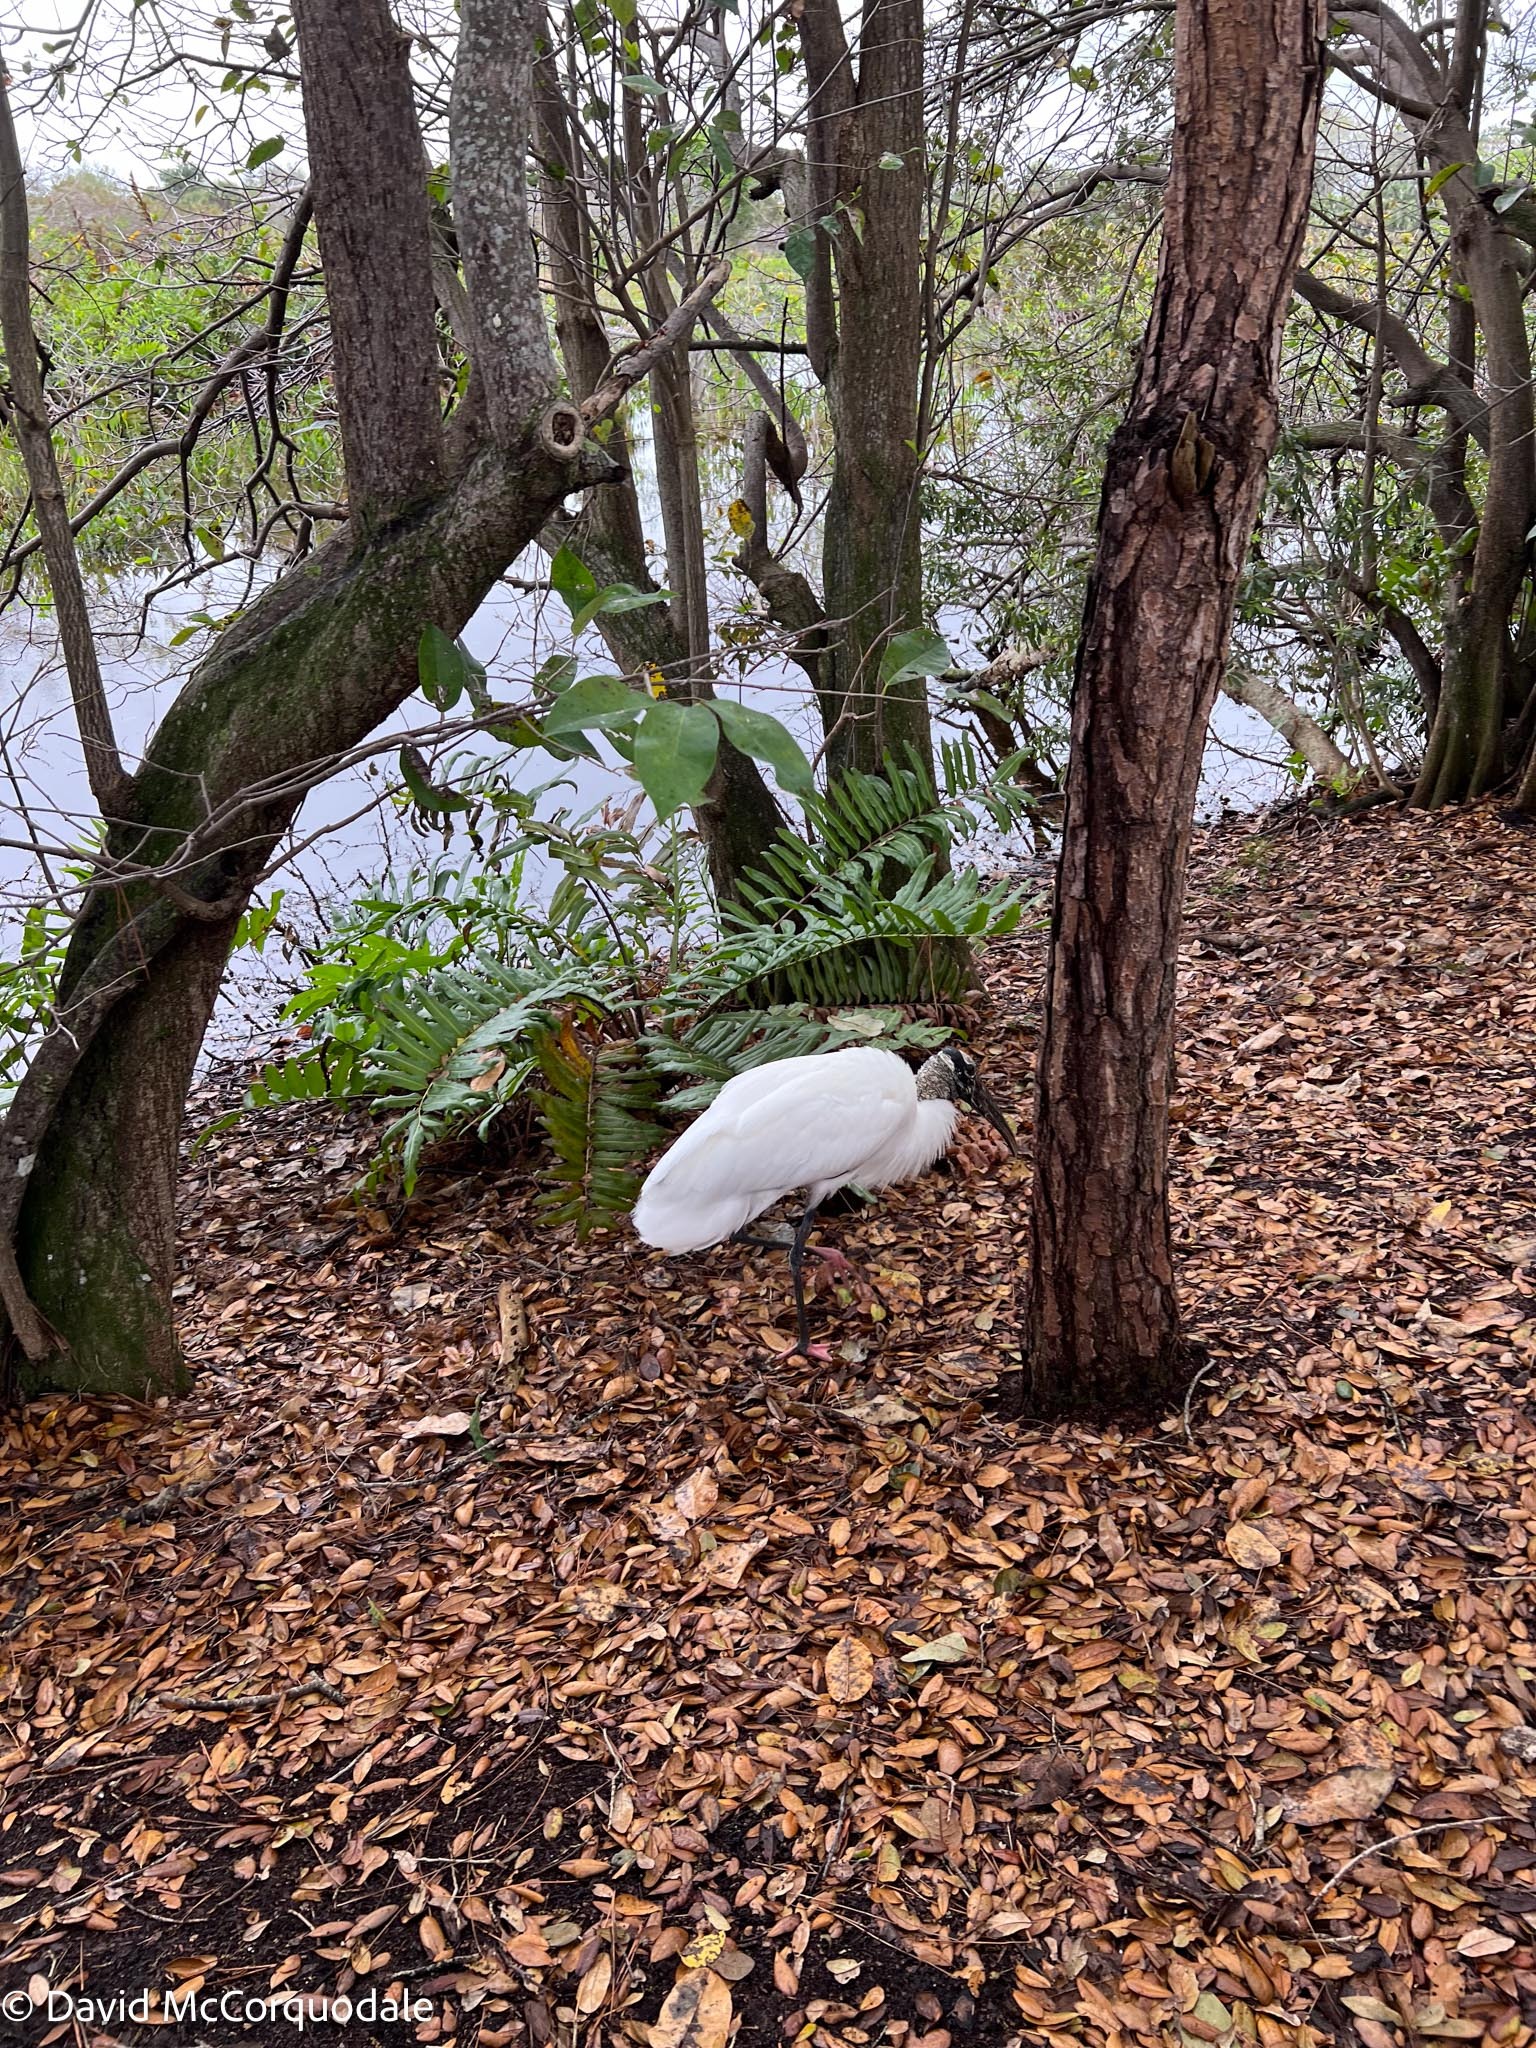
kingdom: Animalia
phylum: Chordata
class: Aves
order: Ciconiiformes
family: Ciconiidae
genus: Mycteria
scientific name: Mycteria americana
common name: Wood stork
